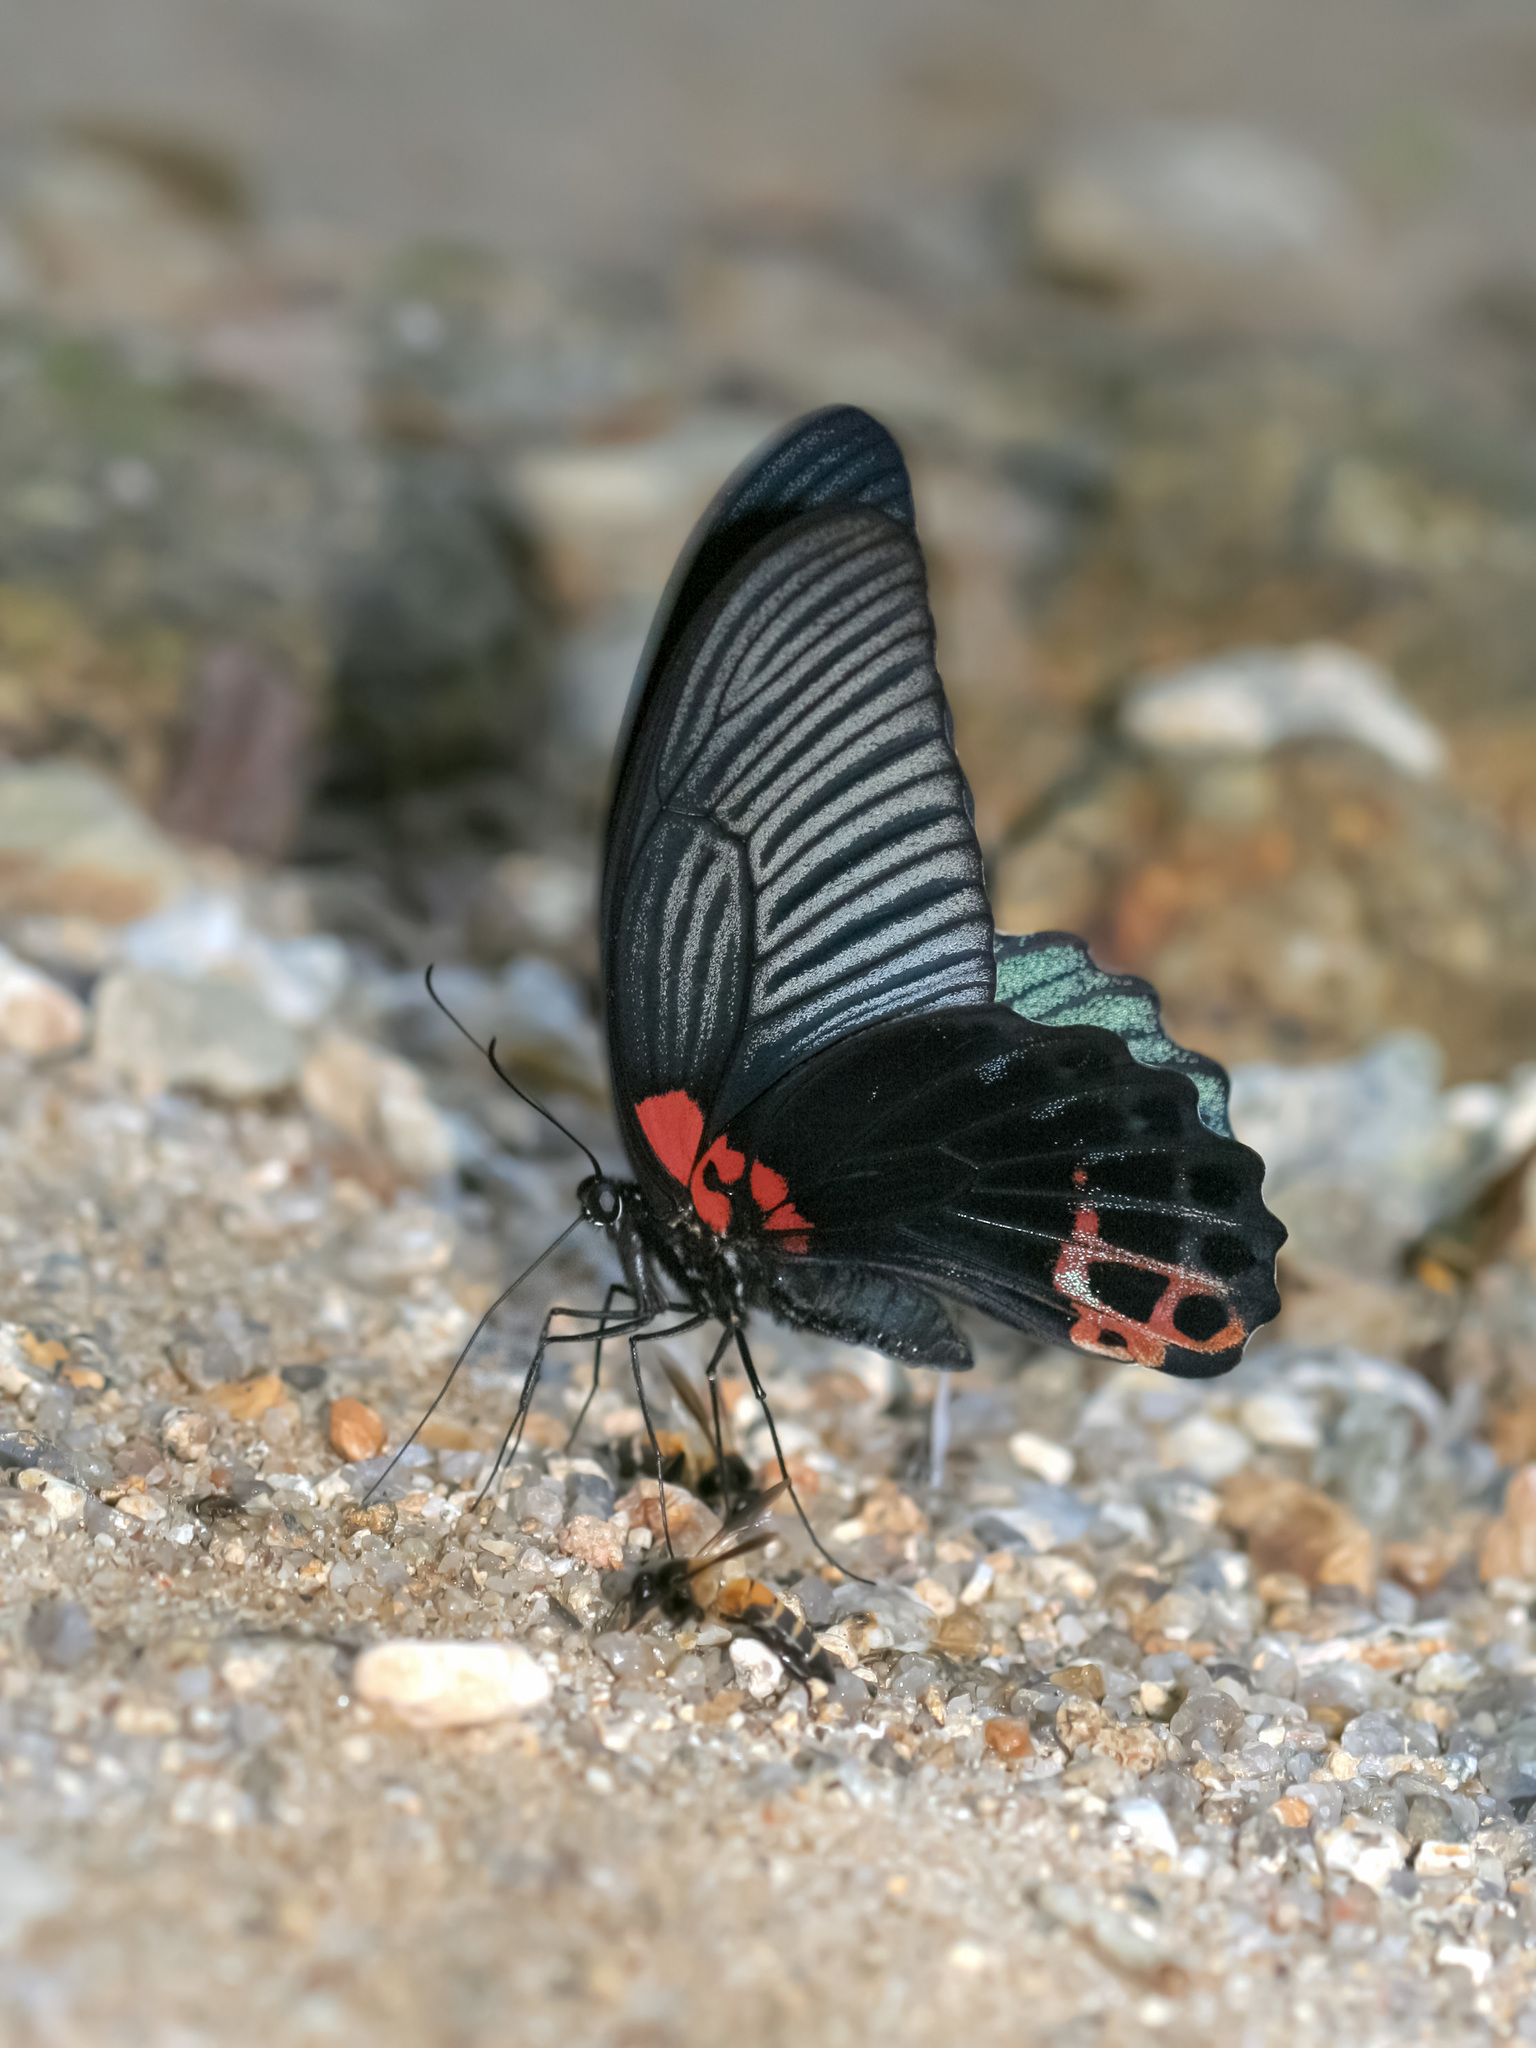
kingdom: Animalia
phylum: Arthropoda
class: Insecta
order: Lepidoptera
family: Papilionidae
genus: Papilio
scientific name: Papilio memnon
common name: Great mormon
